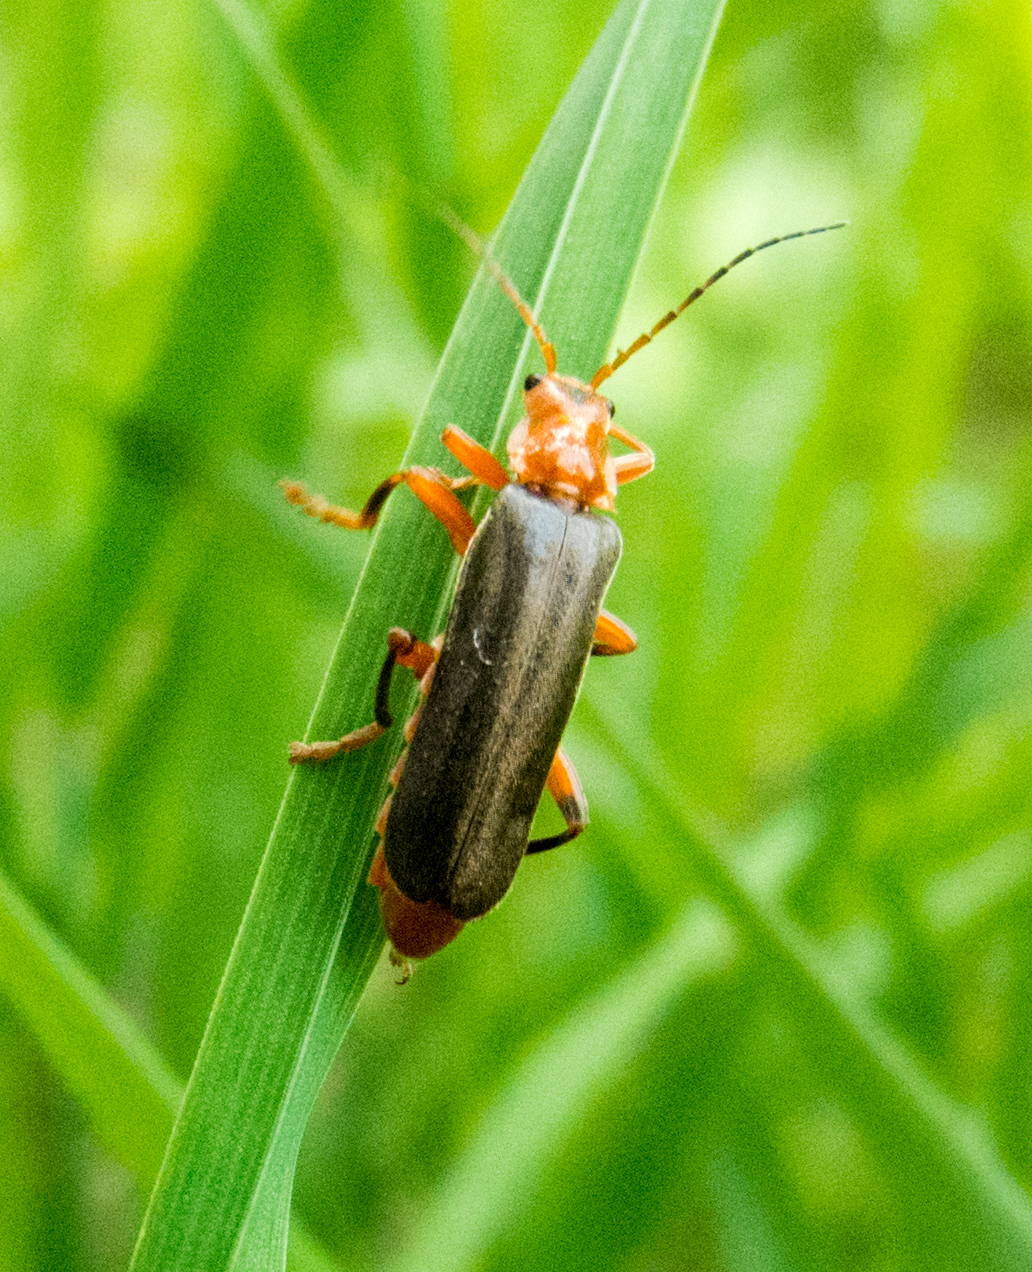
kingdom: Animalia
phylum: Arthropoda
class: Insecta
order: Coleoptera
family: Cantharidae
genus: Cantharis
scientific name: Cantharis livida
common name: Livid soldier beetle
